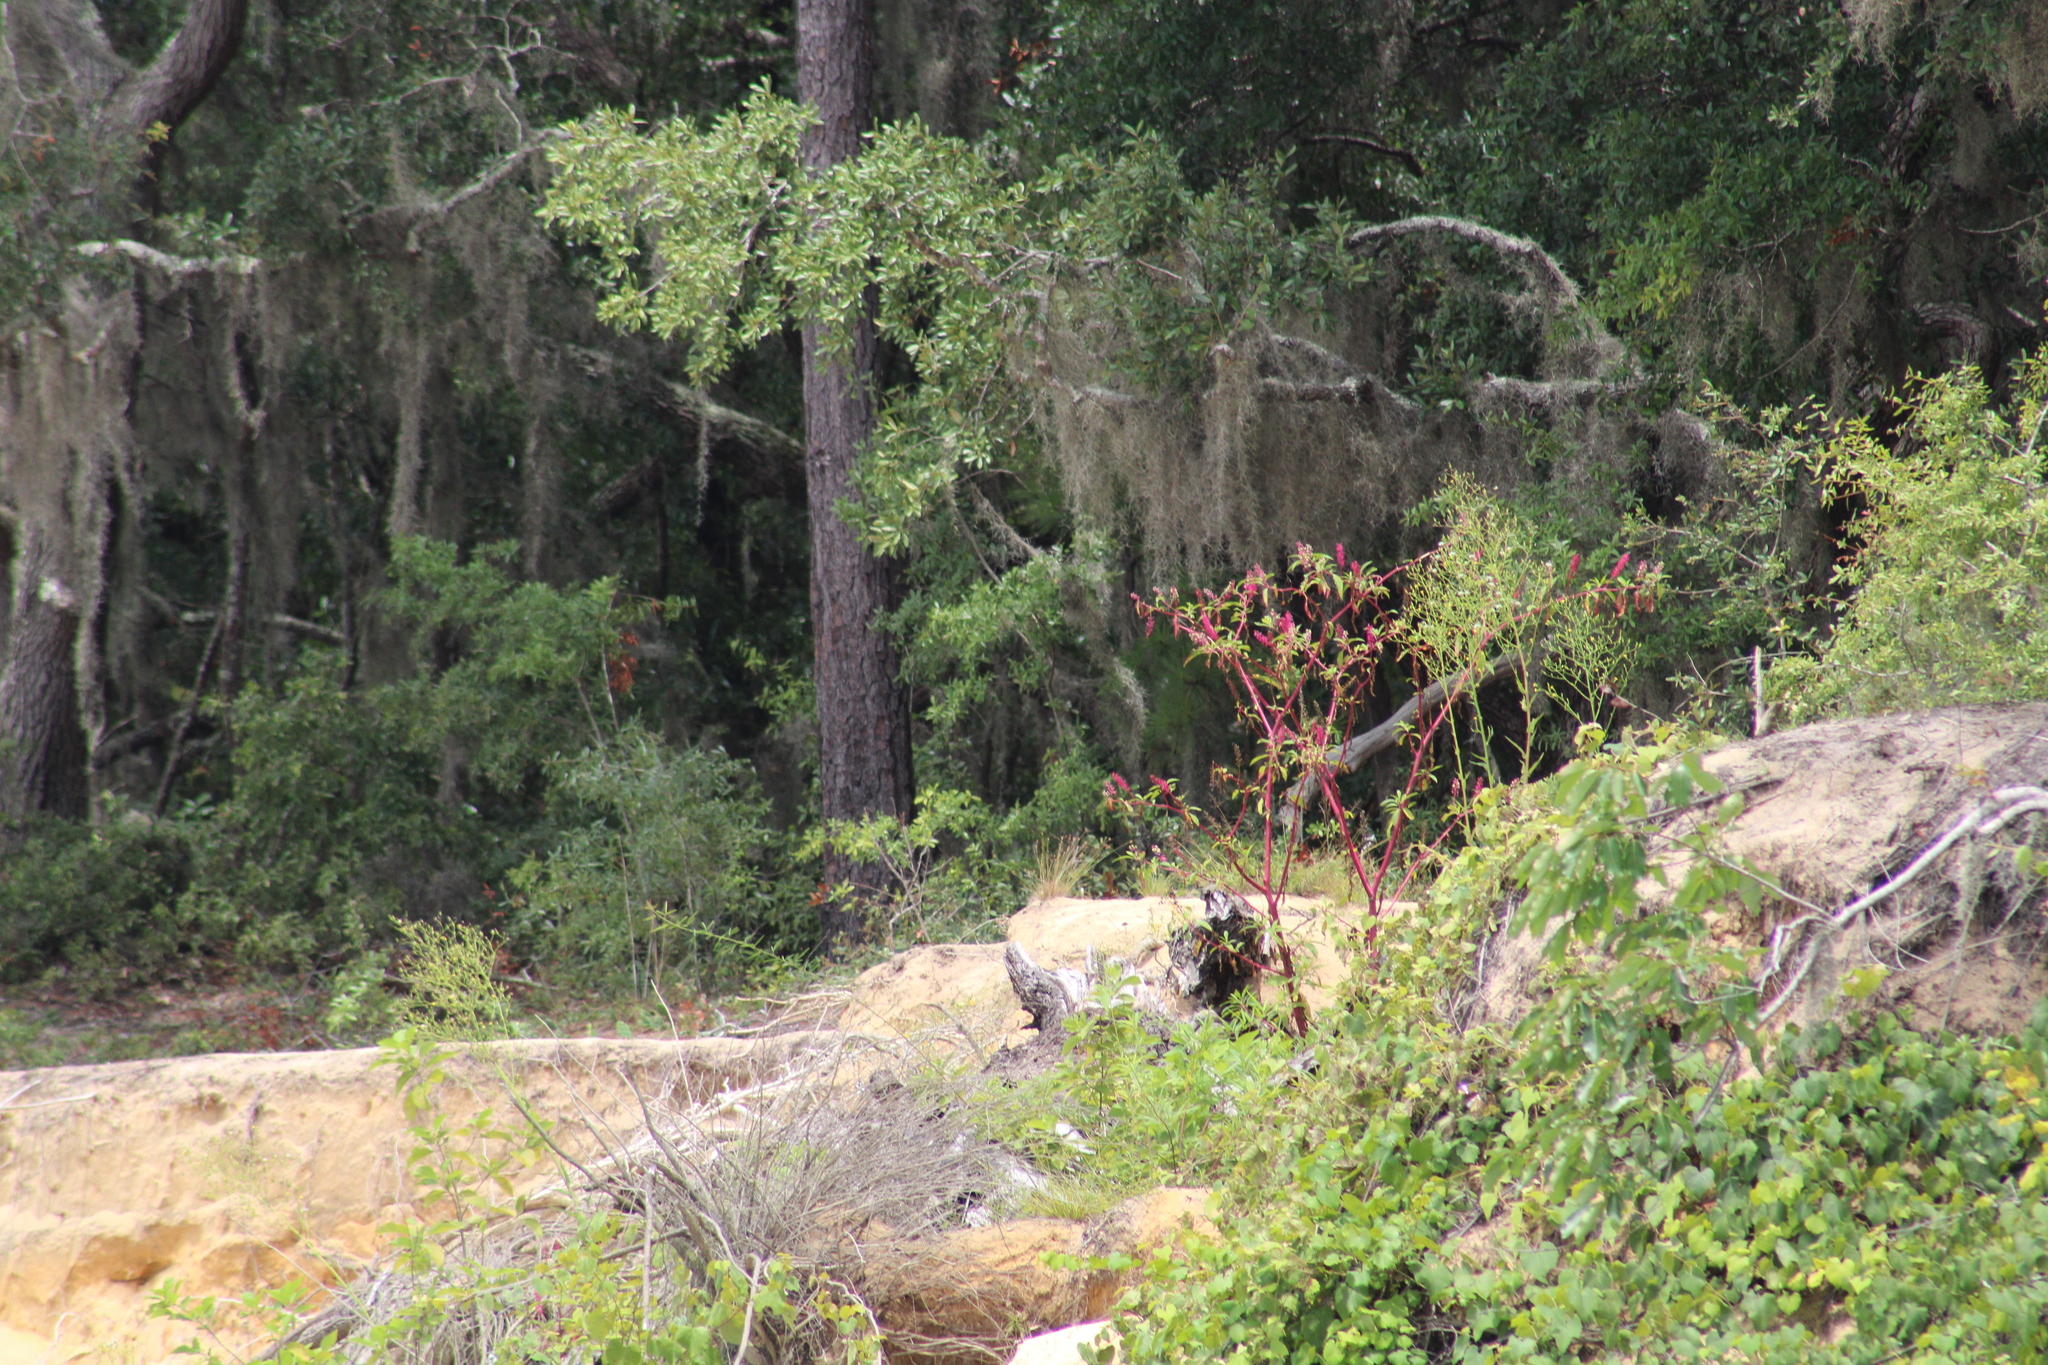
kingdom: Plantae
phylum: Tracheophyta
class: Magnoliopsida
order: Caryophyllales
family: Phytolaccaceae
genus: Phytolacca
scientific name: Phytolacca americana
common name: American pokeweed
